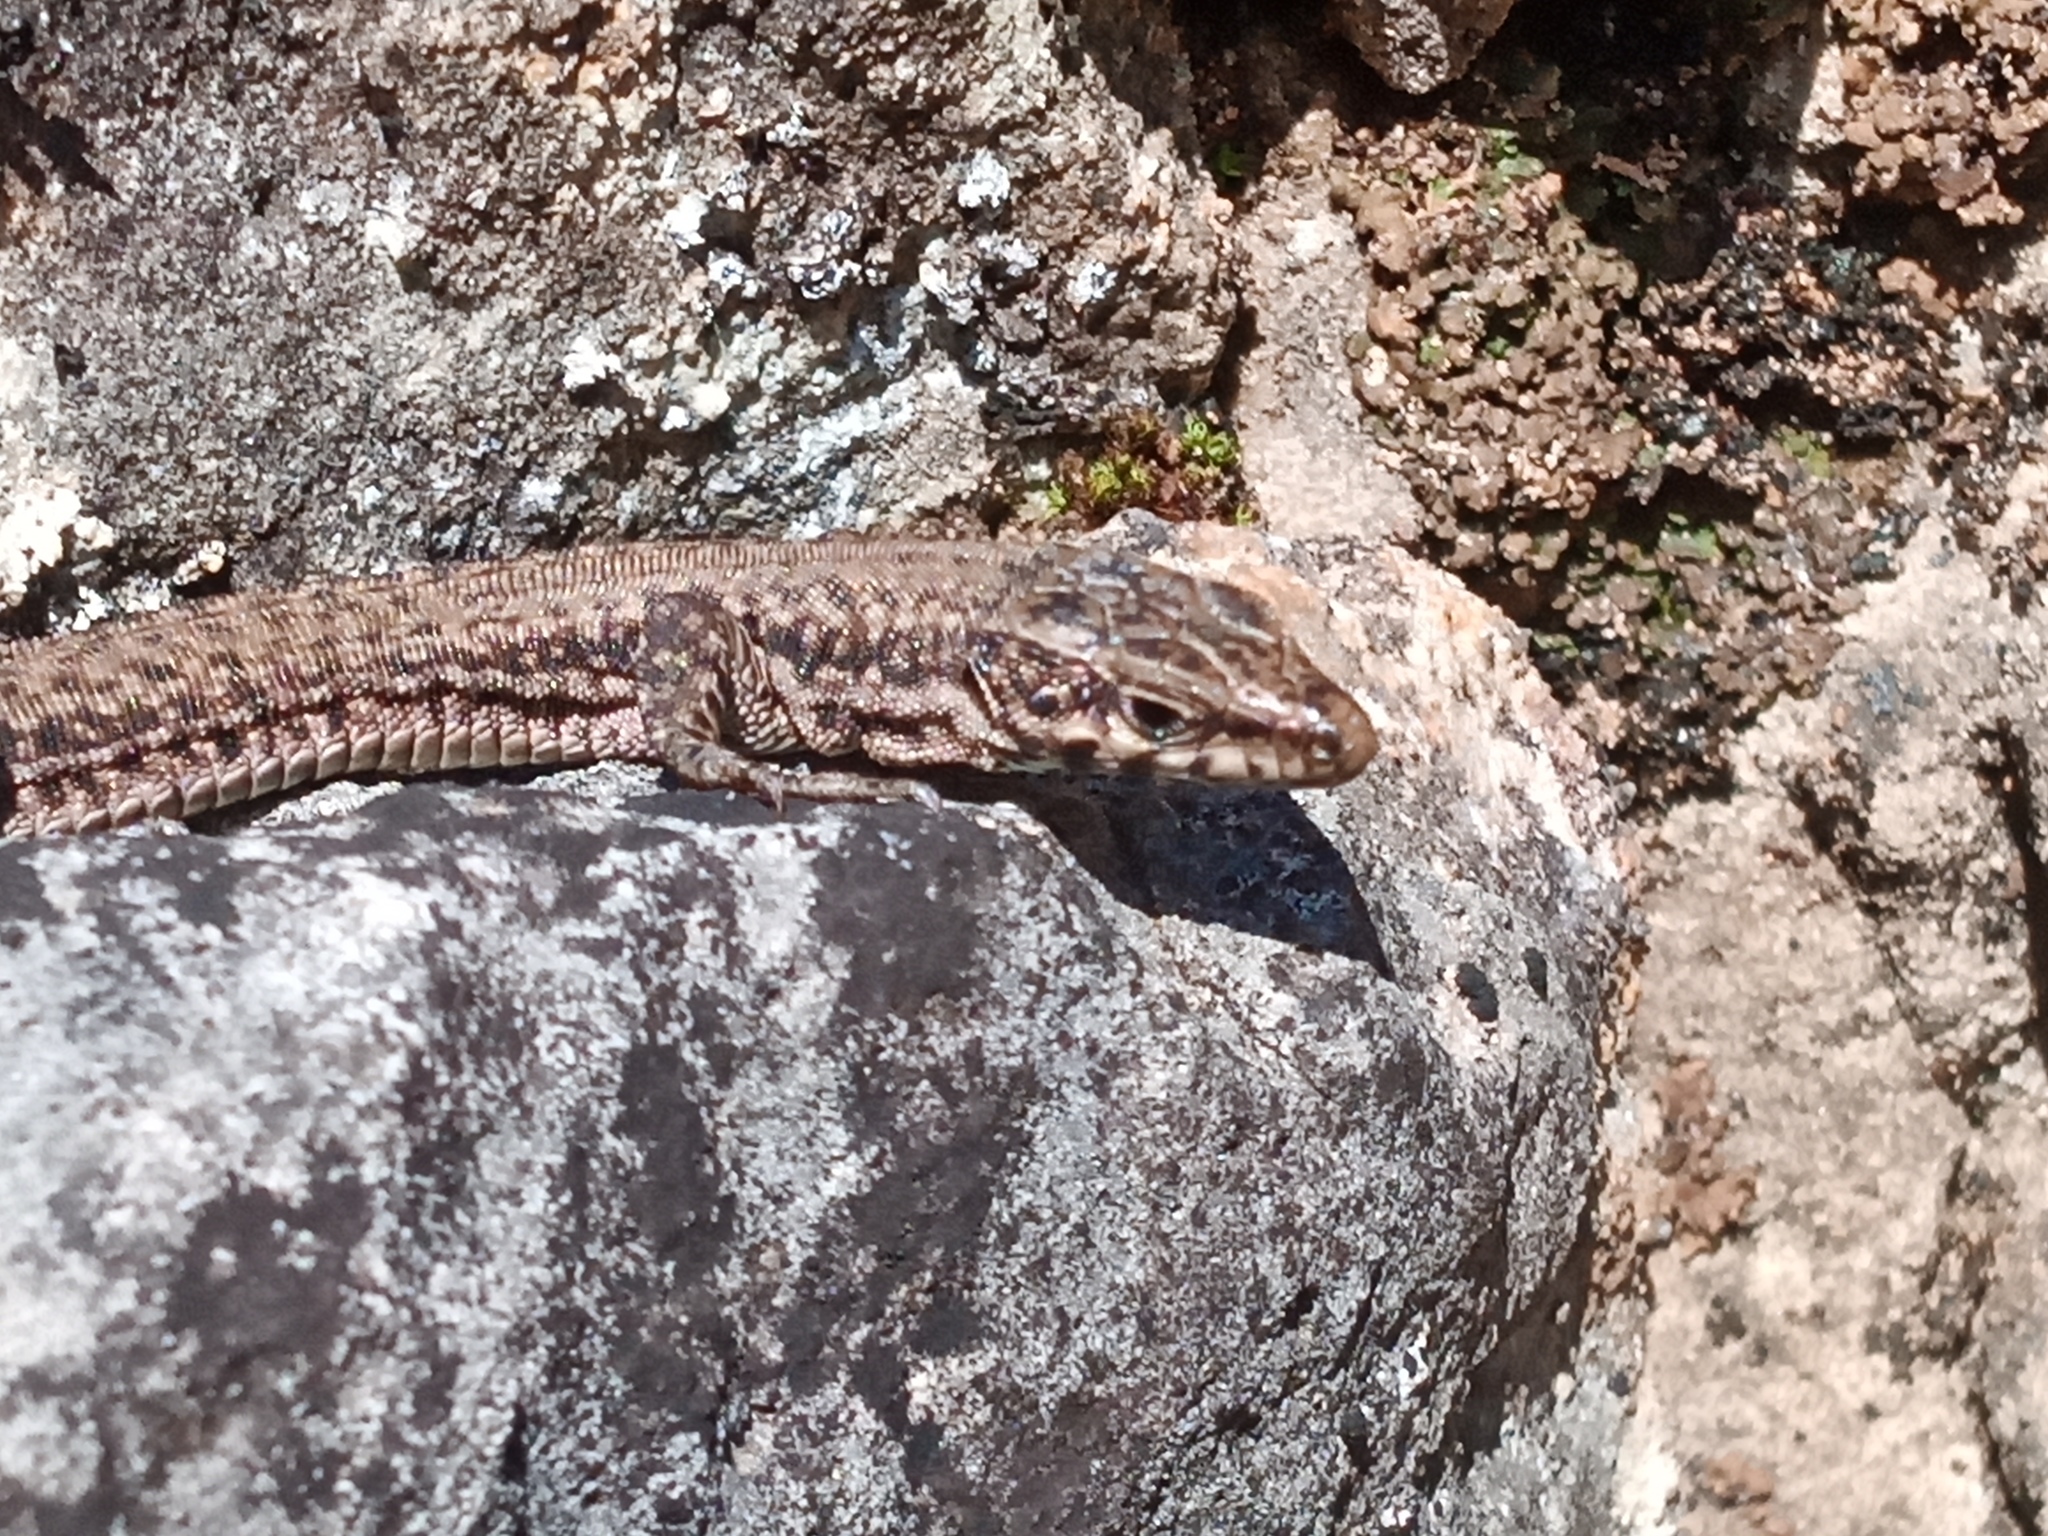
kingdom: Animalia
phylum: Chordata
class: Squamata
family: Lacertidae
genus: Podarcis
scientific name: Podarcis liolepis
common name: Catalonian wall lizard
